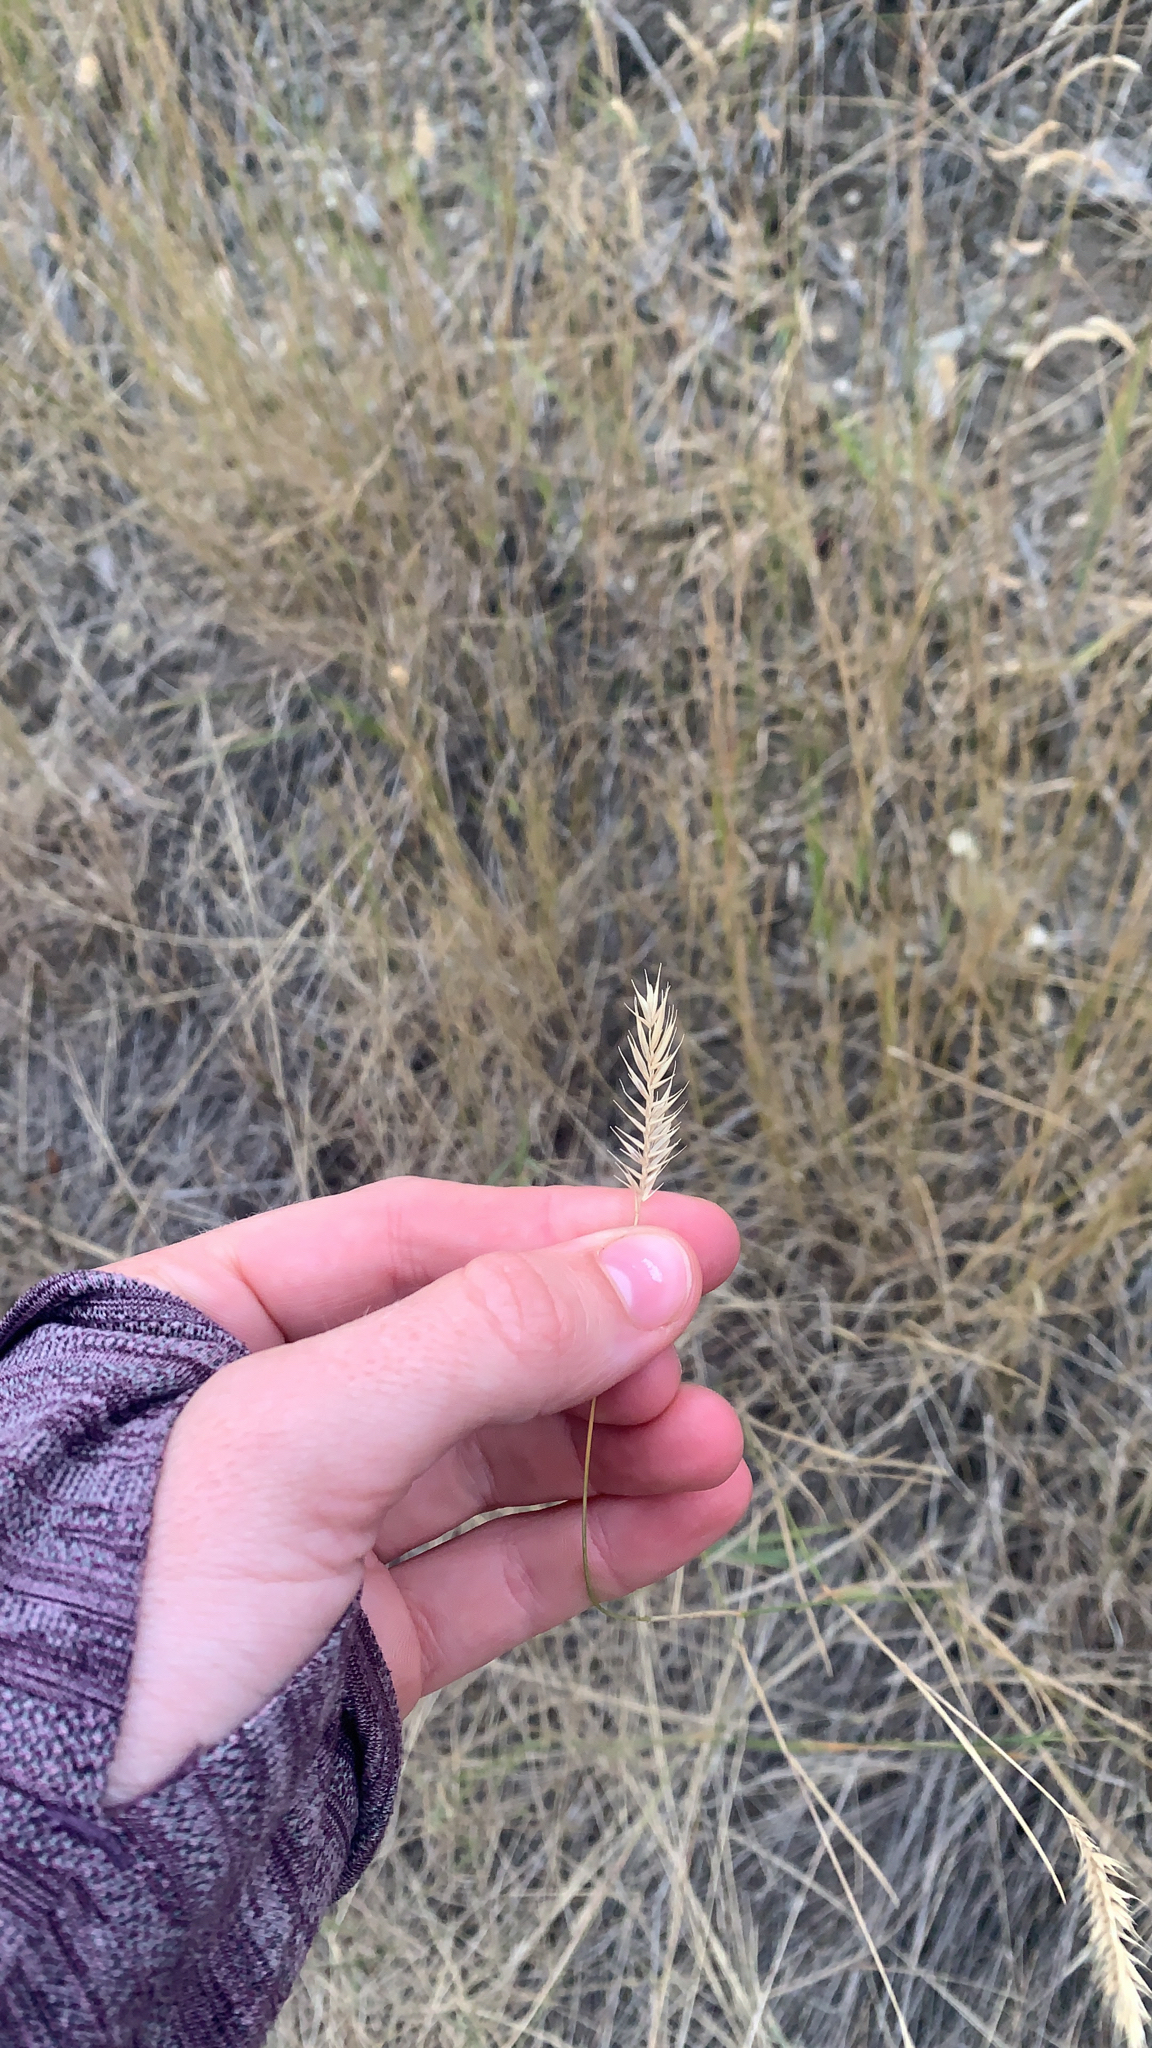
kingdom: Plantae
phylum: Tracheophyta
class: Liliopsida
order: Poales
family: Poaceae
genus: Agropyron
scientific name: Agropyron cristatum
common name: Crested wheatgrass
